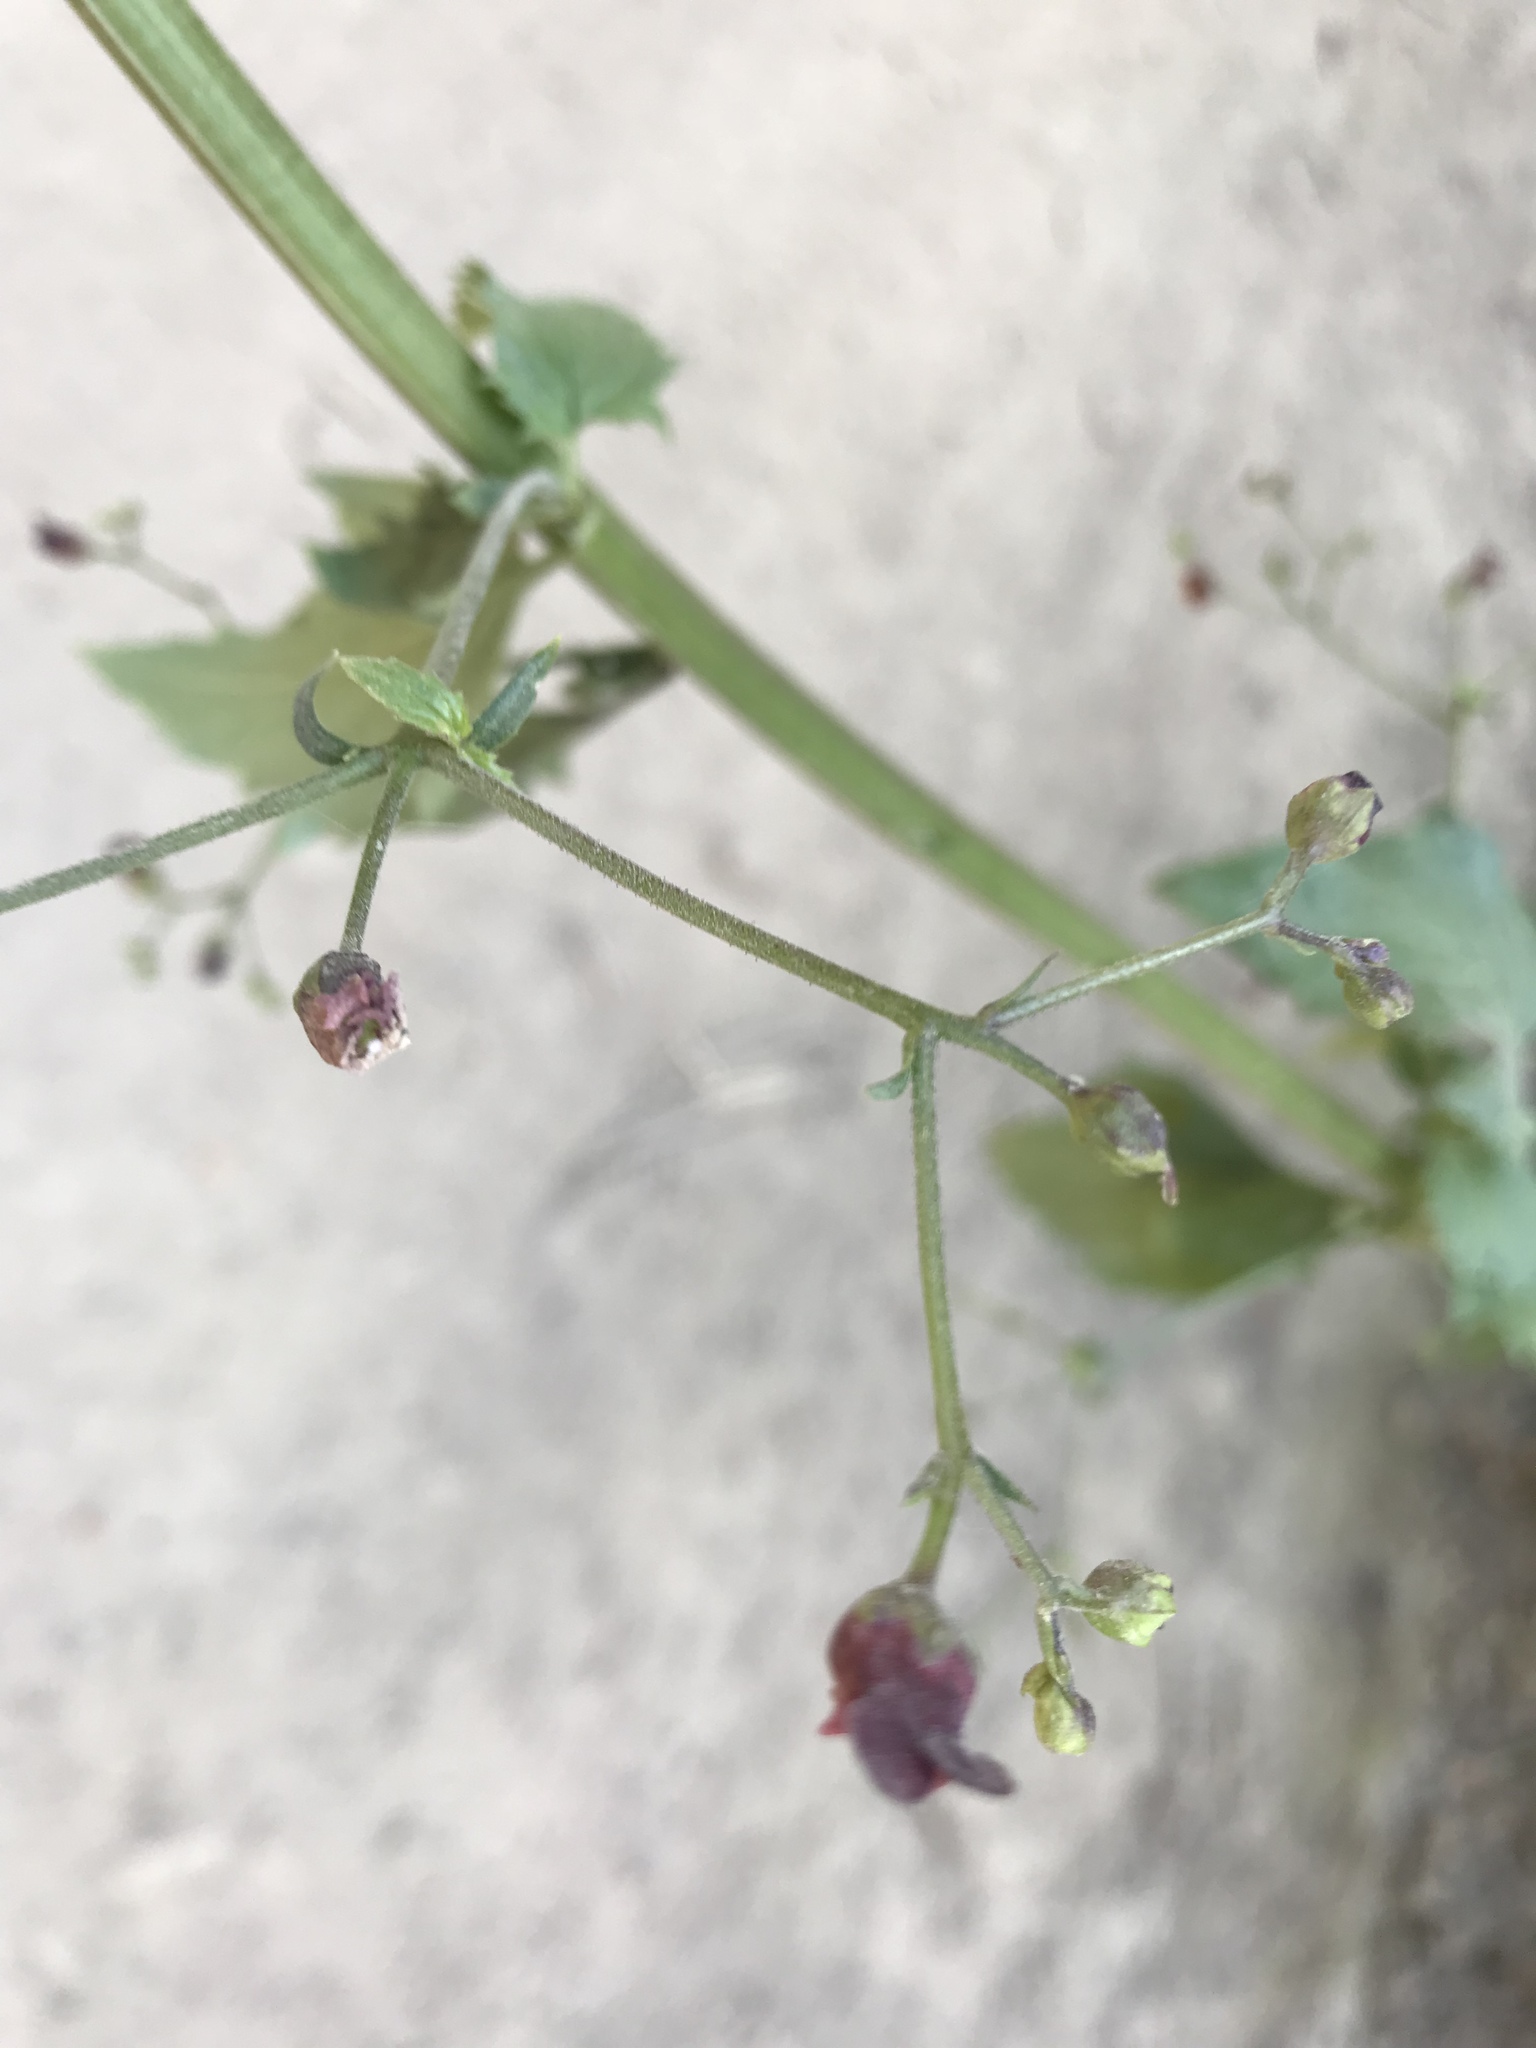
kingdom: Plantae
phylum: Tracheophyta
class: Magnoliopsida
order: Lamiales
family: Scrophulariaceae
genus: Scrophularia
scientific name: Scrophularia californica
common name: California figwort
